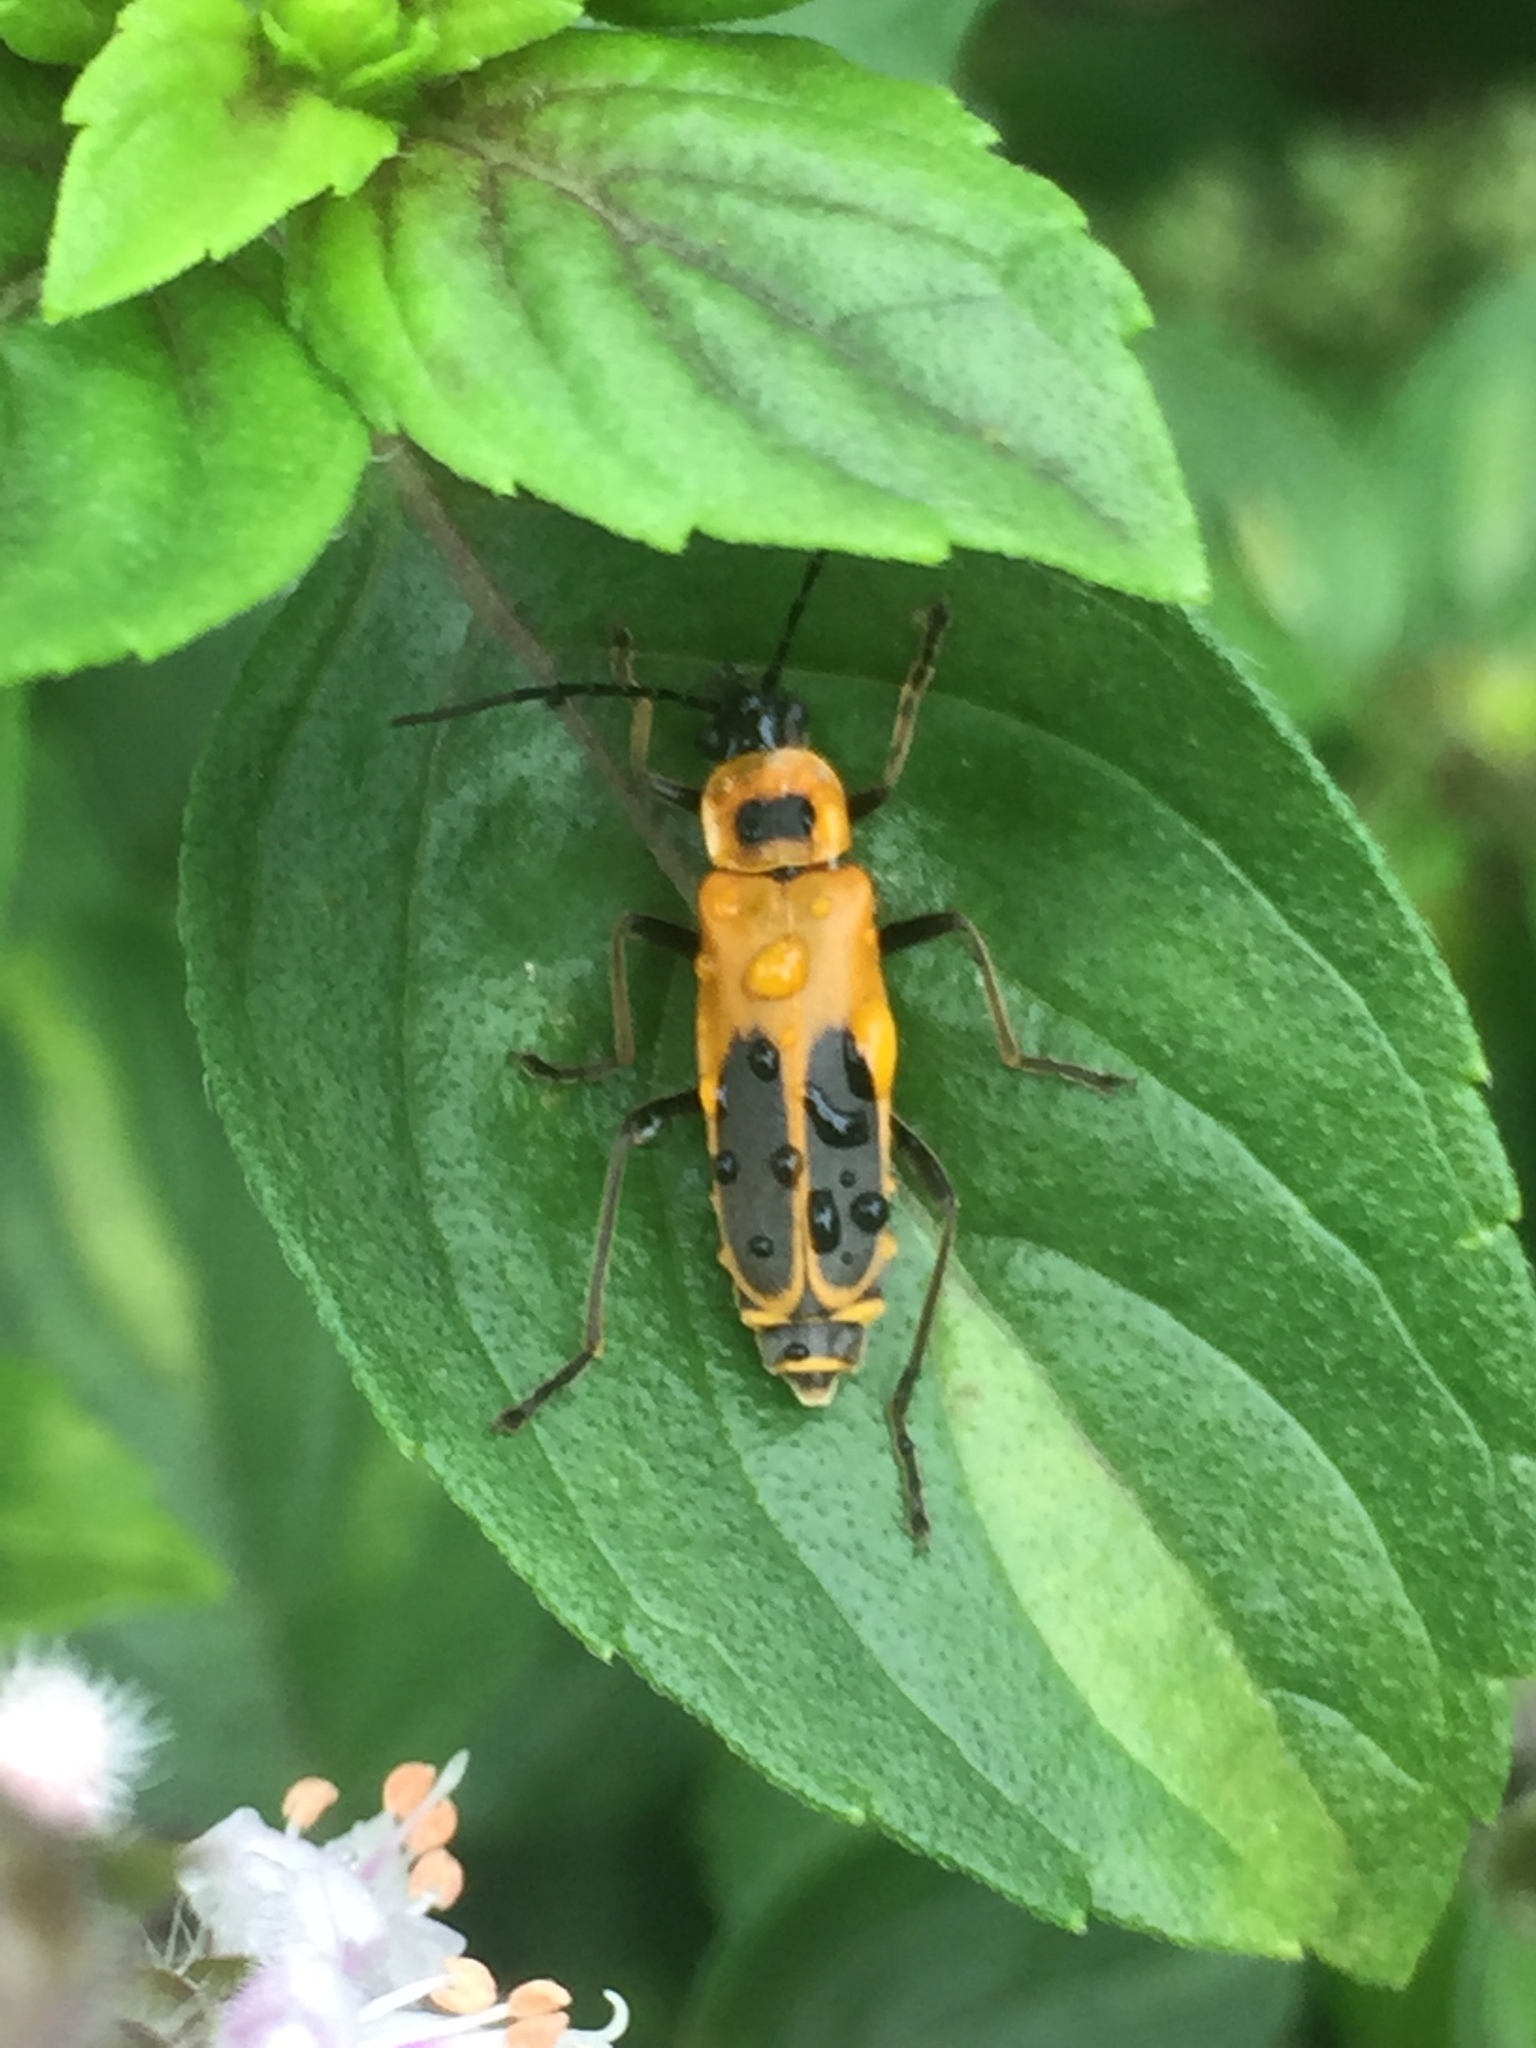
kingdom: Animalia
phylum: Arthropoda
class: Insecta
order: Coleoptera
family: Cantharidae
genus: Chauliognathus
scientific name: Chauliognathus pensylvanicus
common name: Goldenrod soldier beetle
